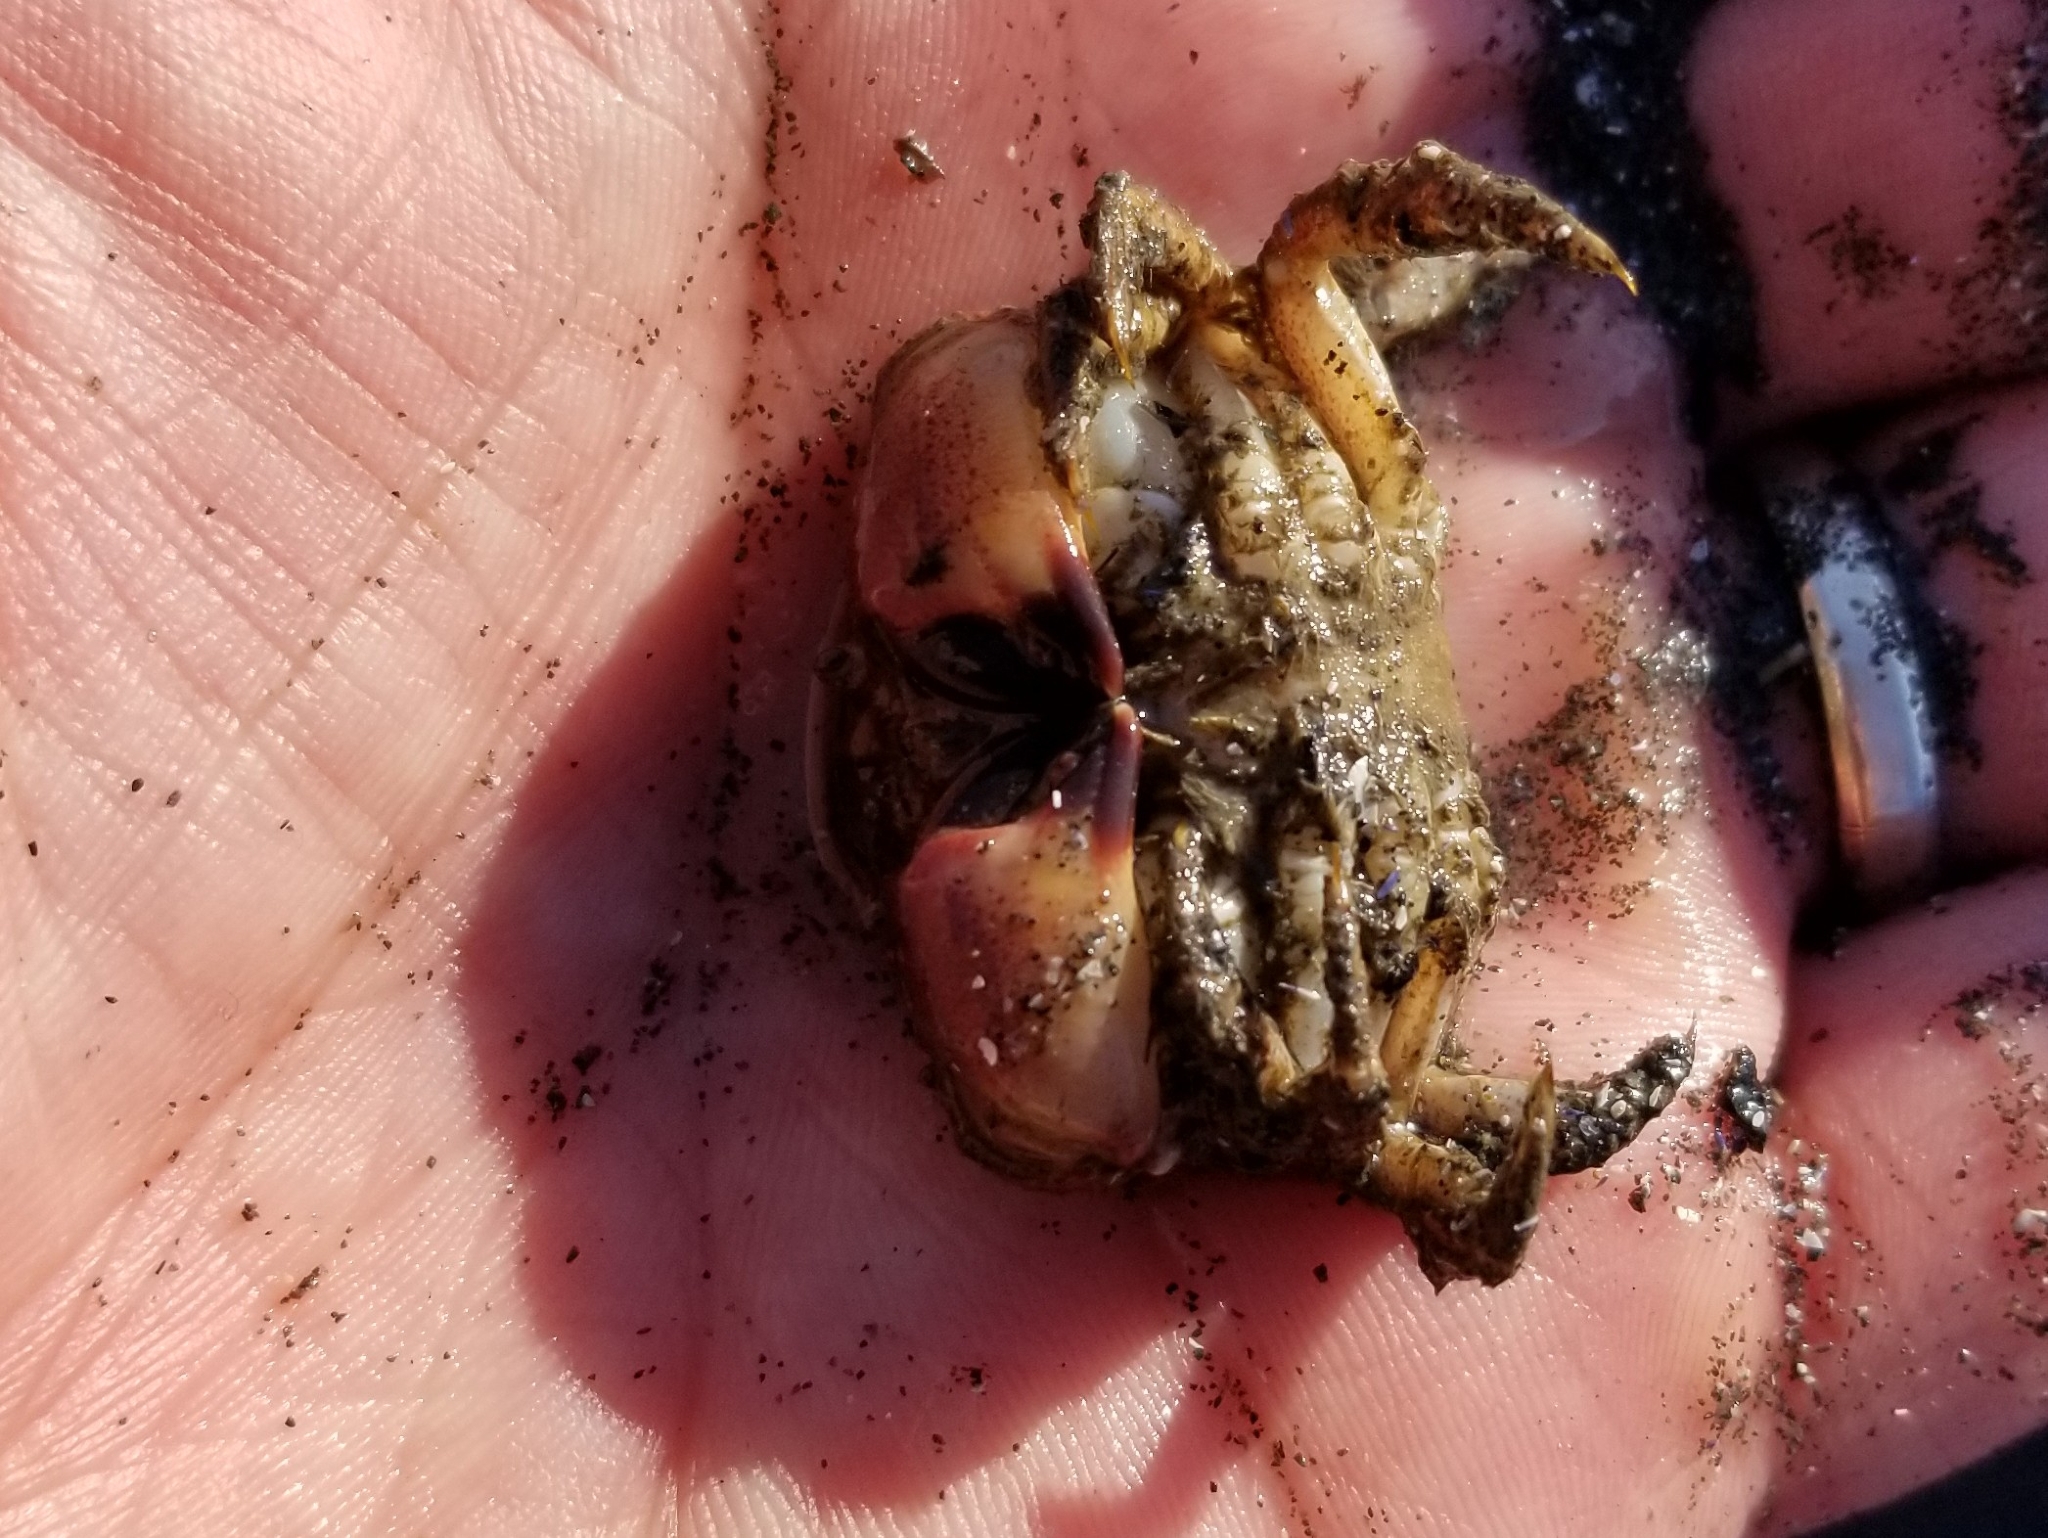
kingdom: Animalia
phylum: Arthropoda
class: Malacostraca
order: Decapoda
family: Cancridae
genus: Glebocarcinus
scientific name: Glebocarcinus oregonensis
